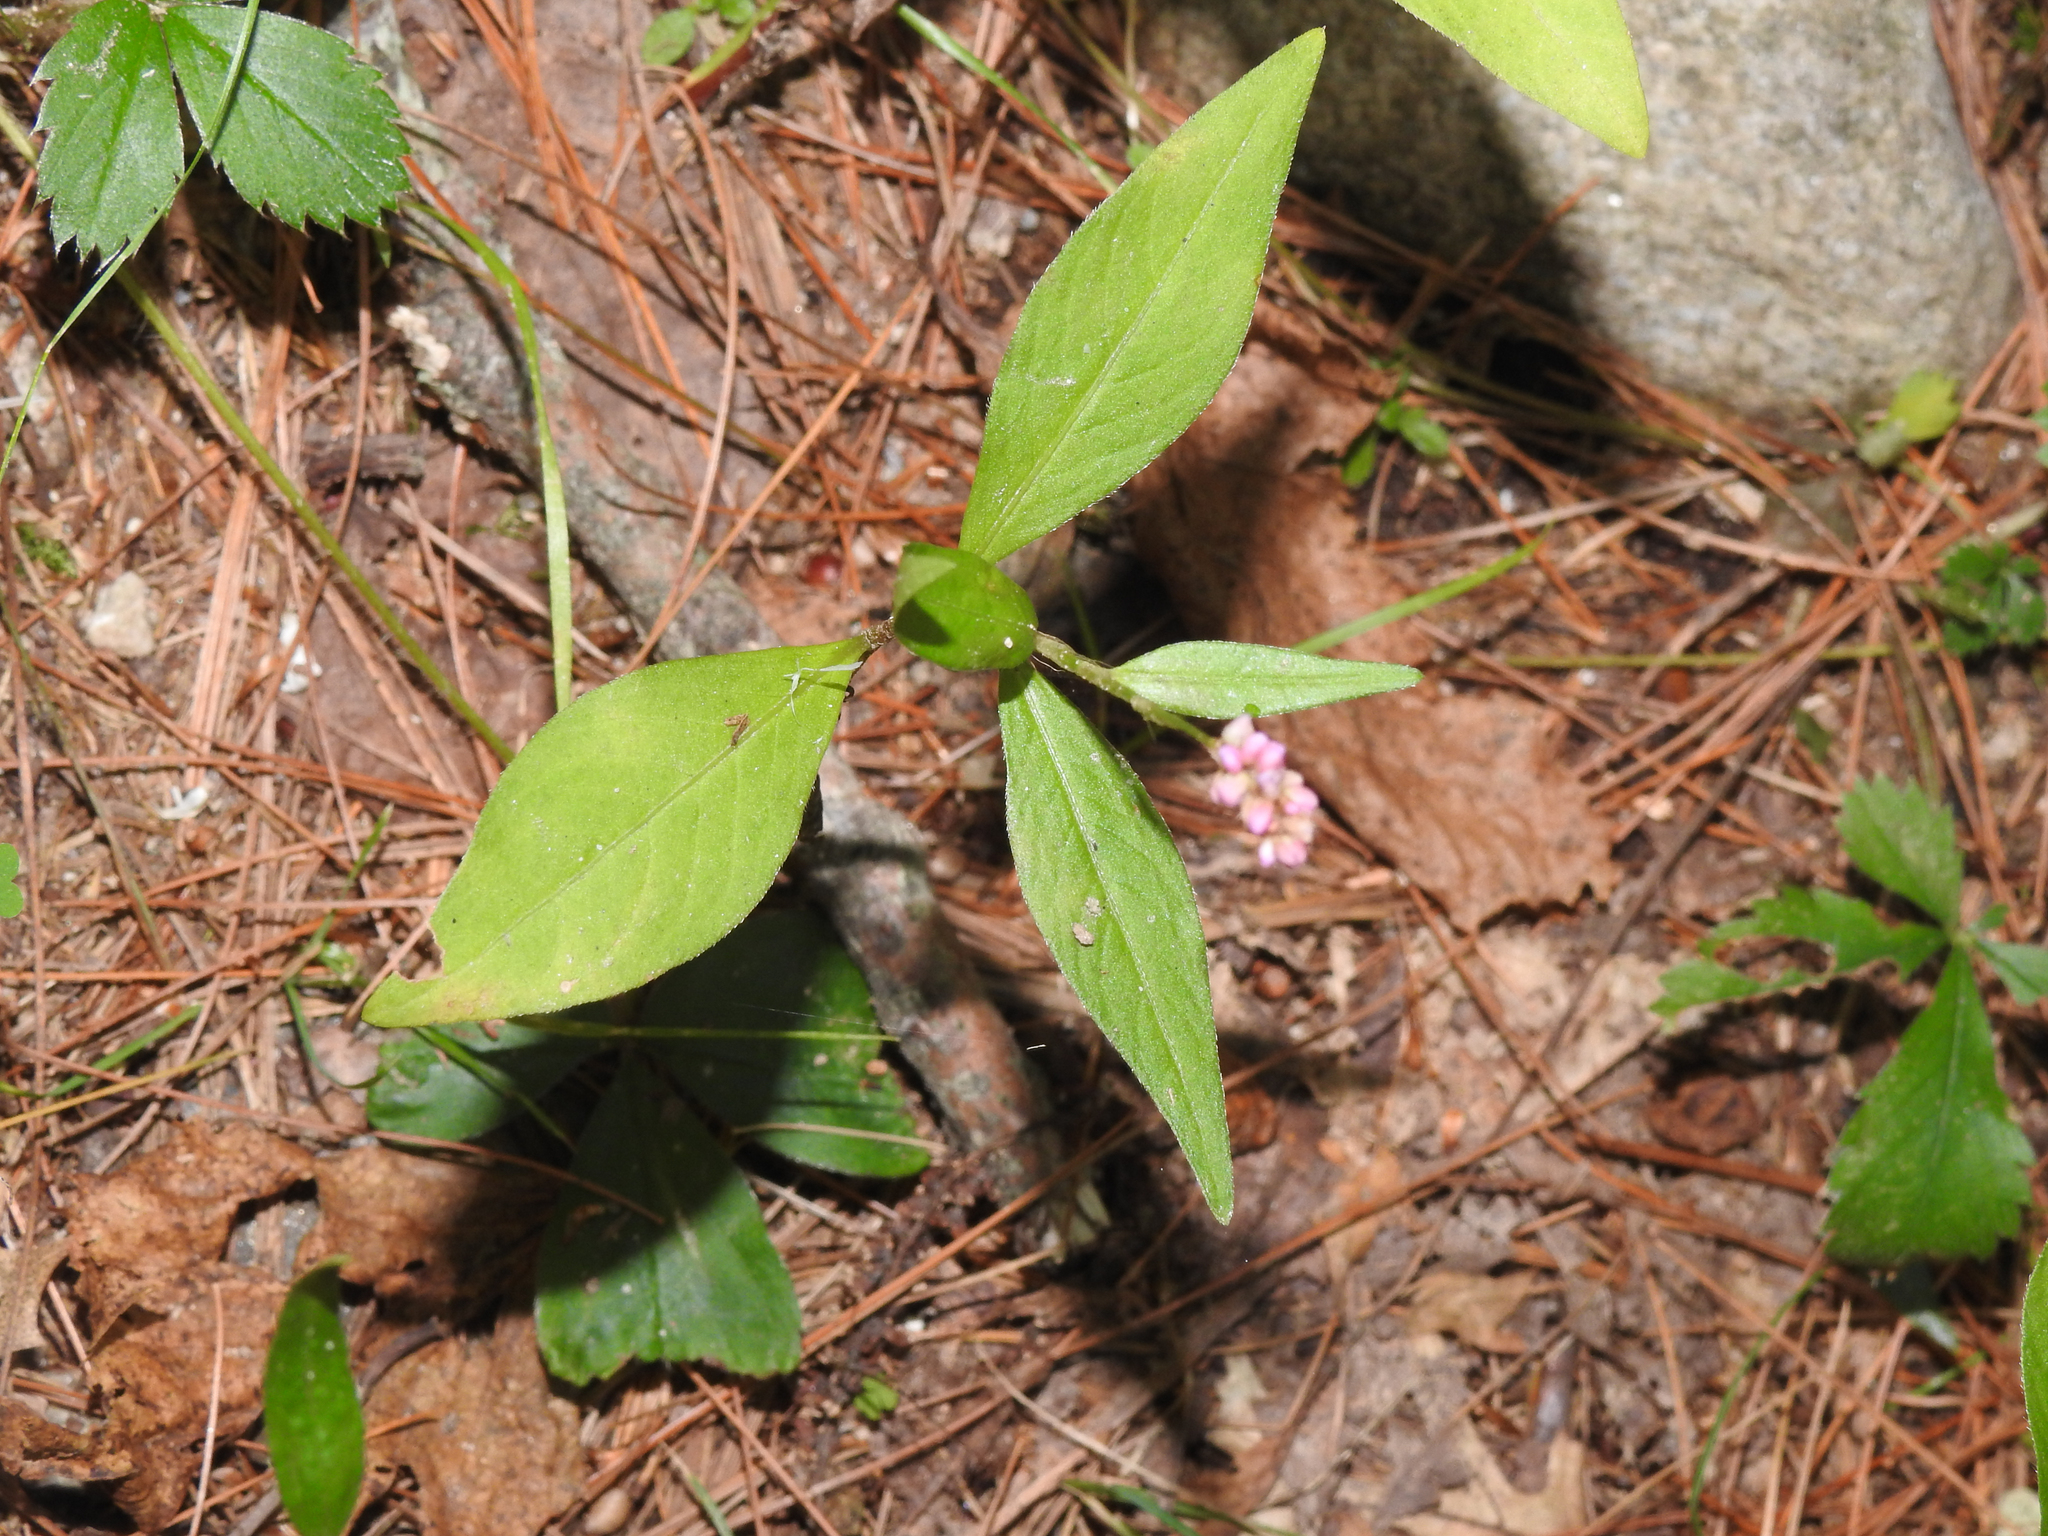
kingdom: Plantae
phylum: Tracheophyta
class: Magnoliopsida
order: Caryophyllales
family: Polygonaceae
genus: Persicaria
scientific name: Persicaria longiseta
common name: Bristly lady's-thumb
